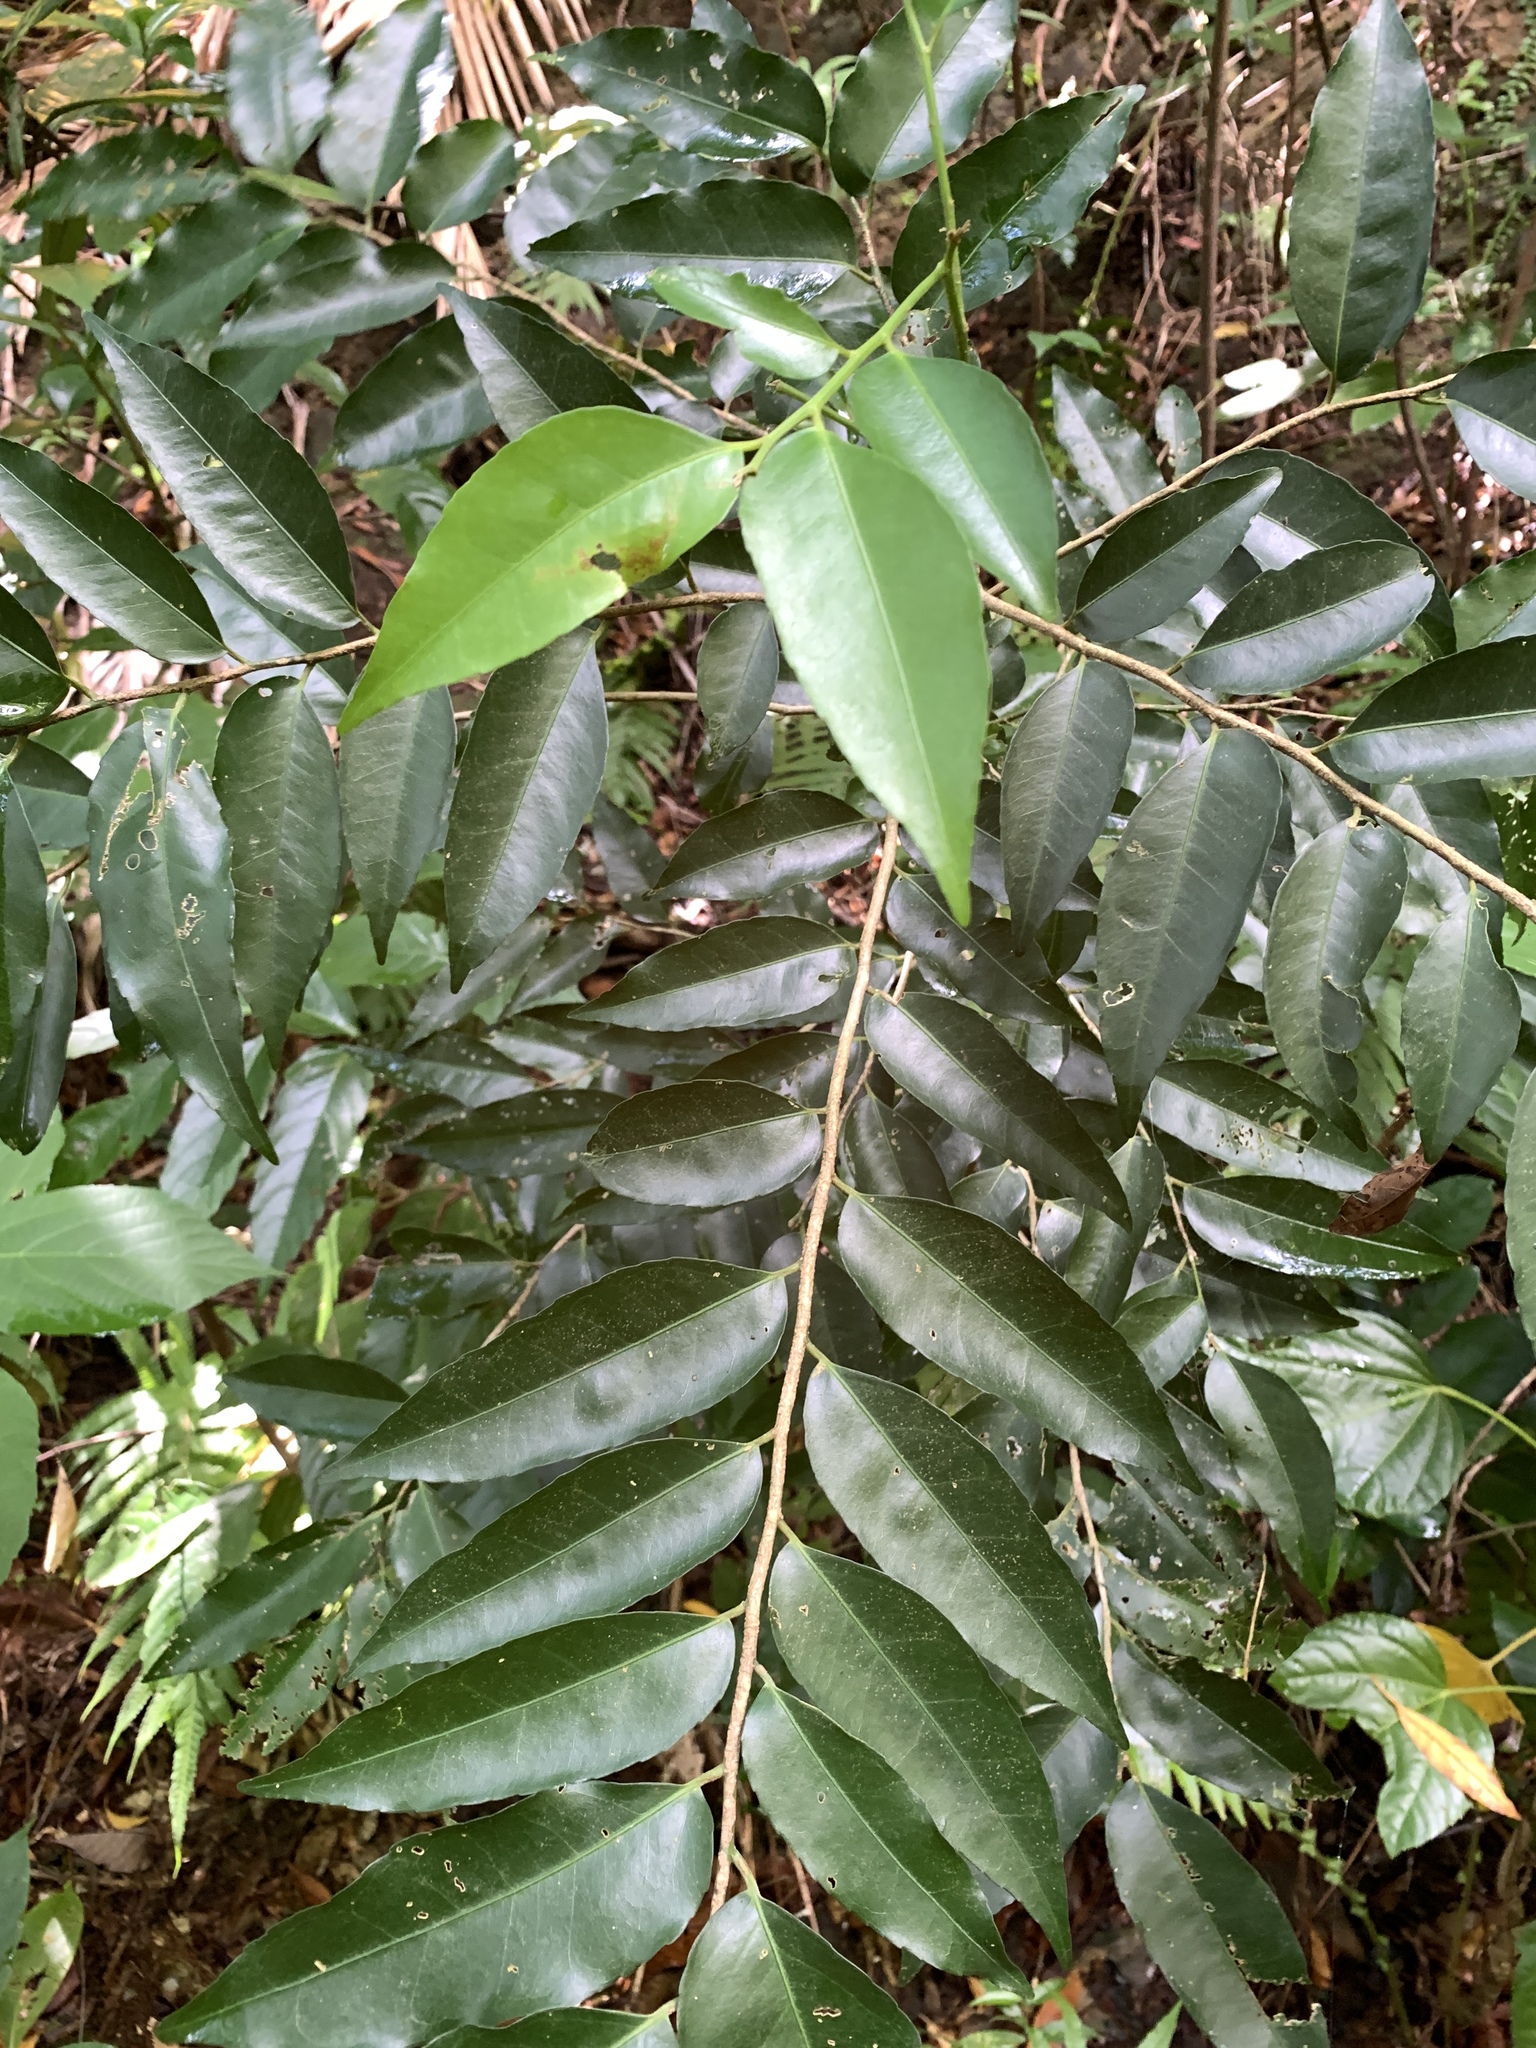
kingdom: Plantae
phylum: Tracheophyta
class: Magnoliopsida
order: Malpighiales
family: Putranjivaceae
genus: Putranjiva
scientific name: Putranjiva formosana
